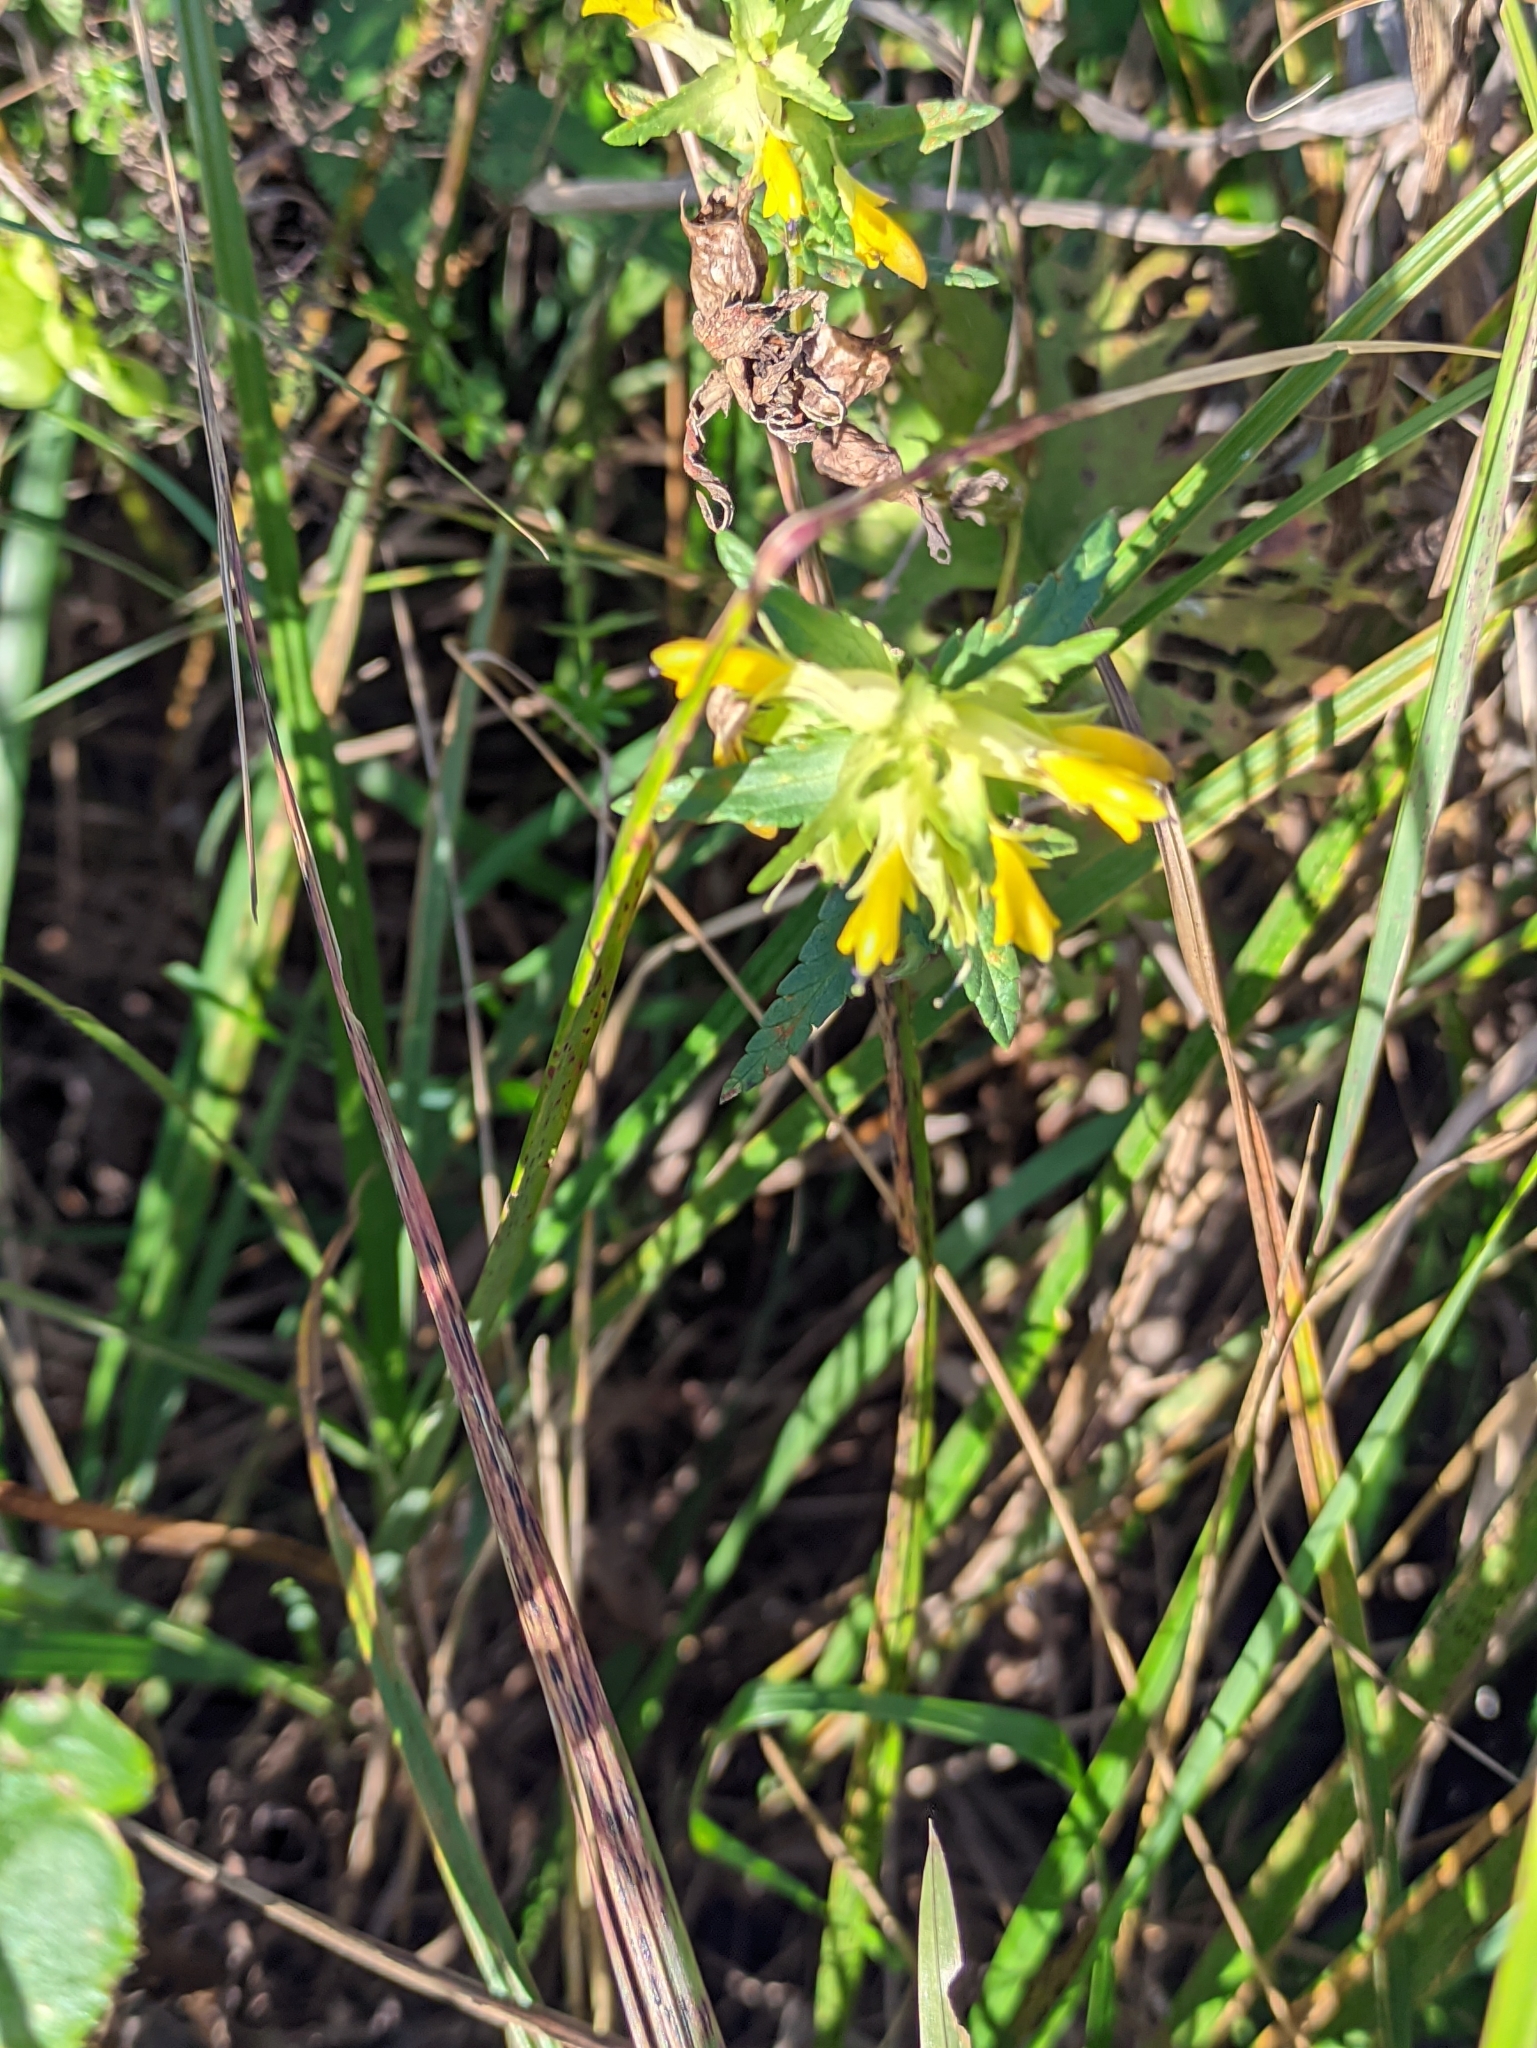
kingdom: Plantae
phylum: Tracheophyta
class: Magnoliopsida
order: Lamiales
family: Orobanchaceae
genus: Rhinanthus
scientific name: Rhinanthus serotinus
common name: Late-flowering yellow rattle
